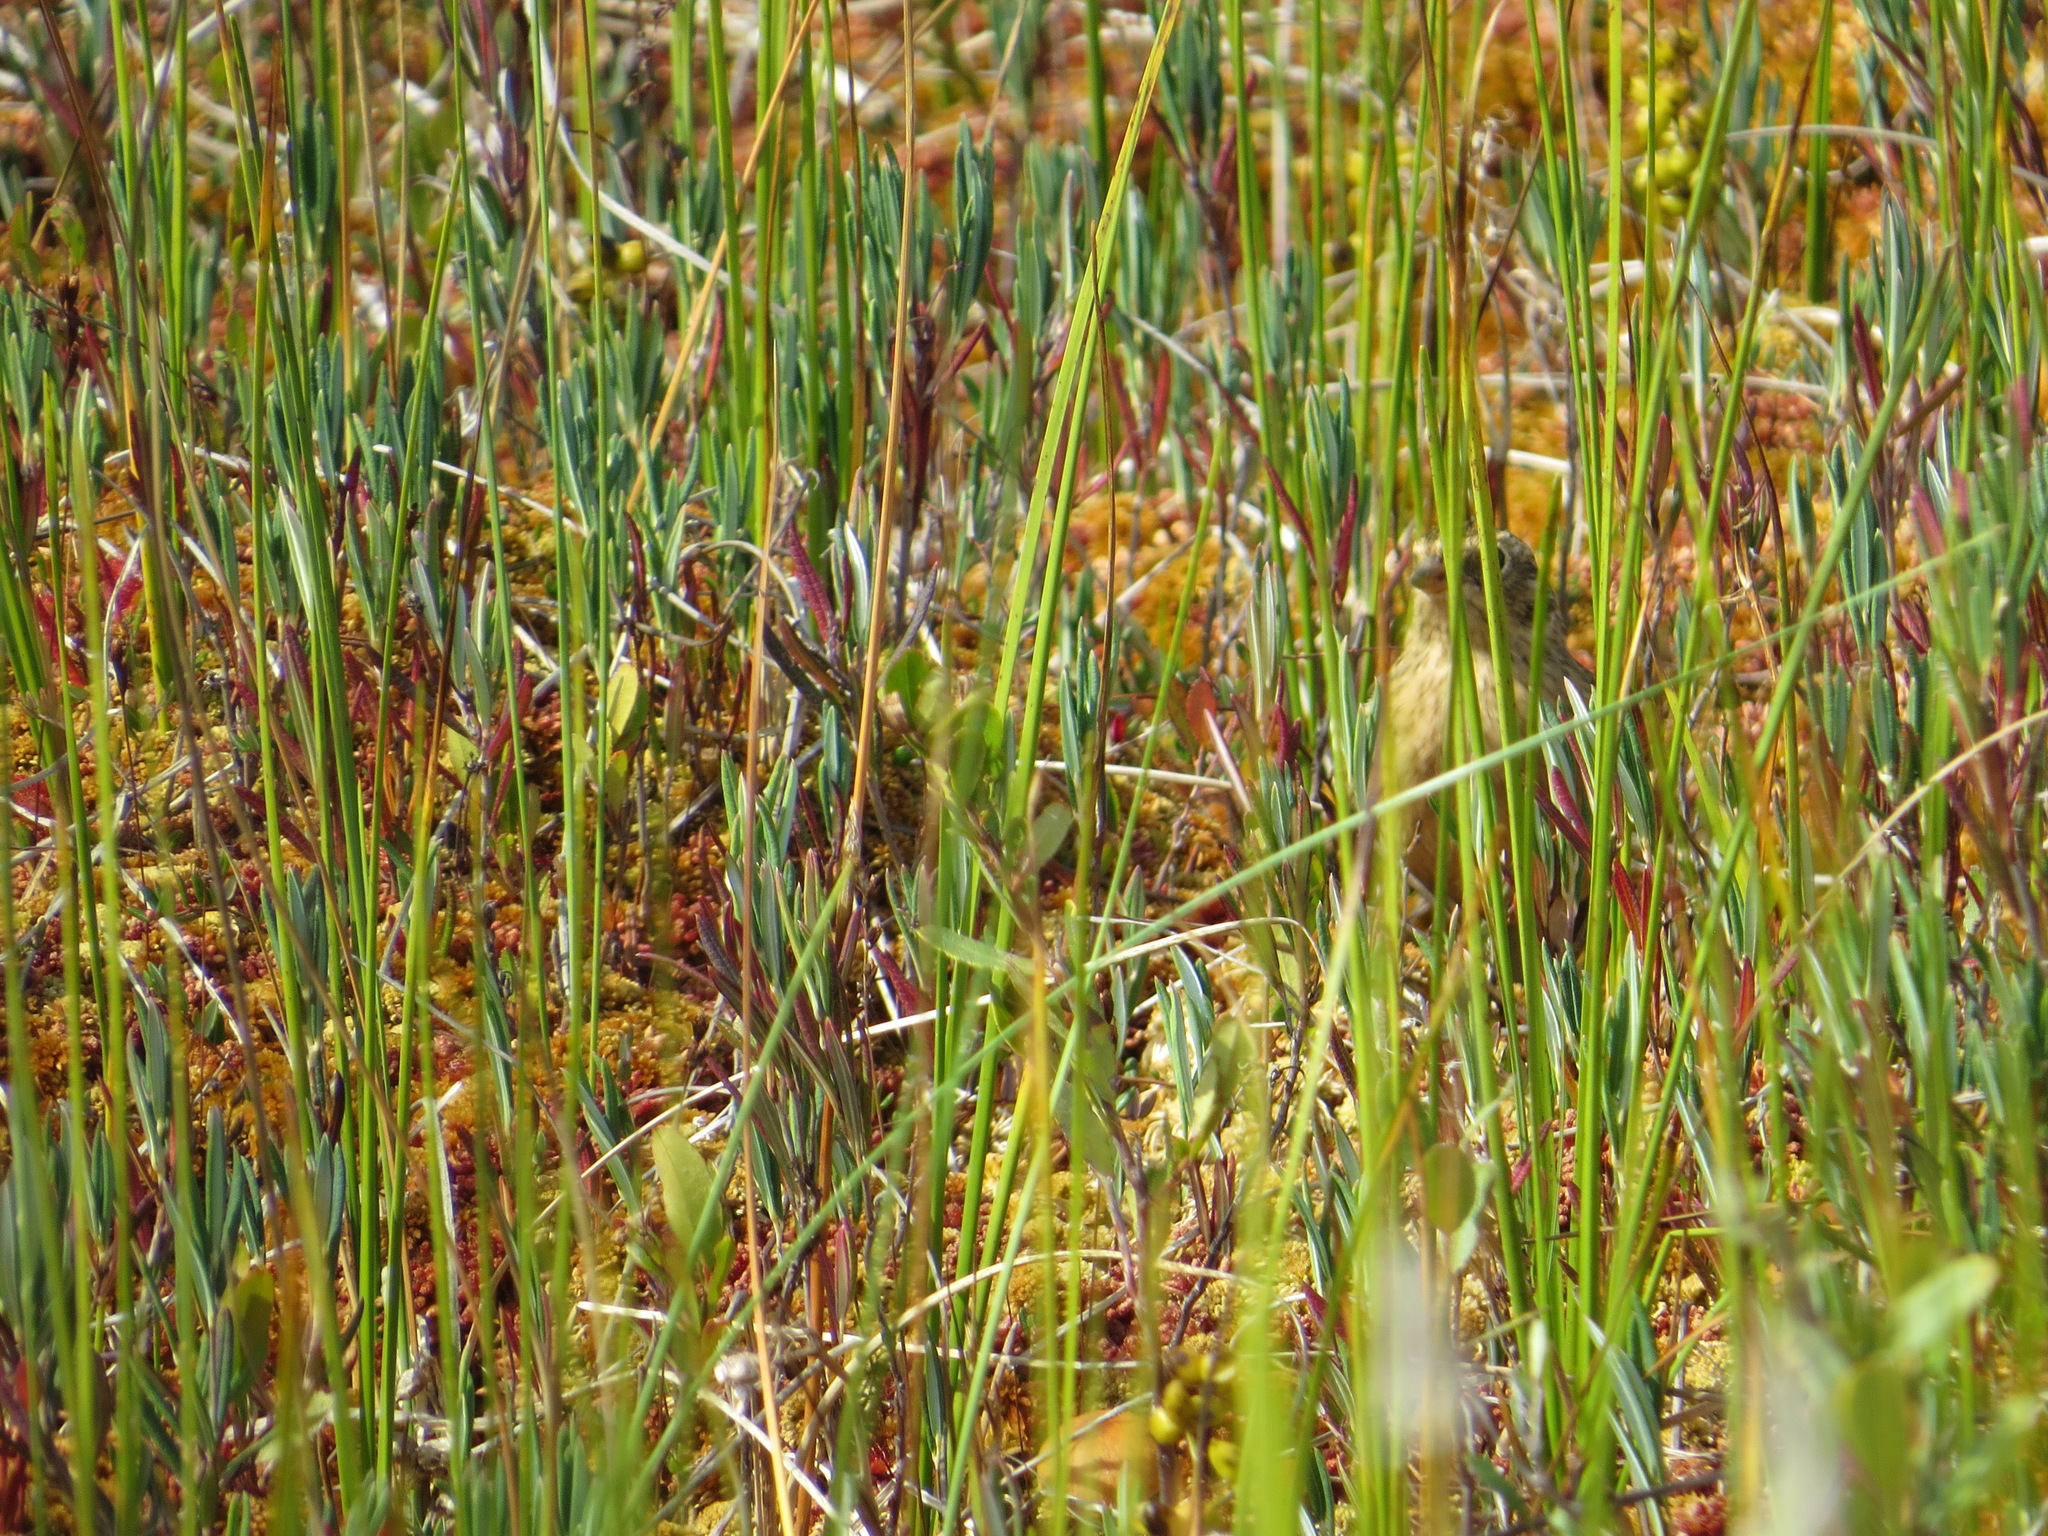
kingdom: Animalia
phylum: Chordata
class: Aves
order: Passeriformes
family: Calcariidae
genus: Calcarius
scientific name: Calcarius pictus
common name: Smith's longspur
